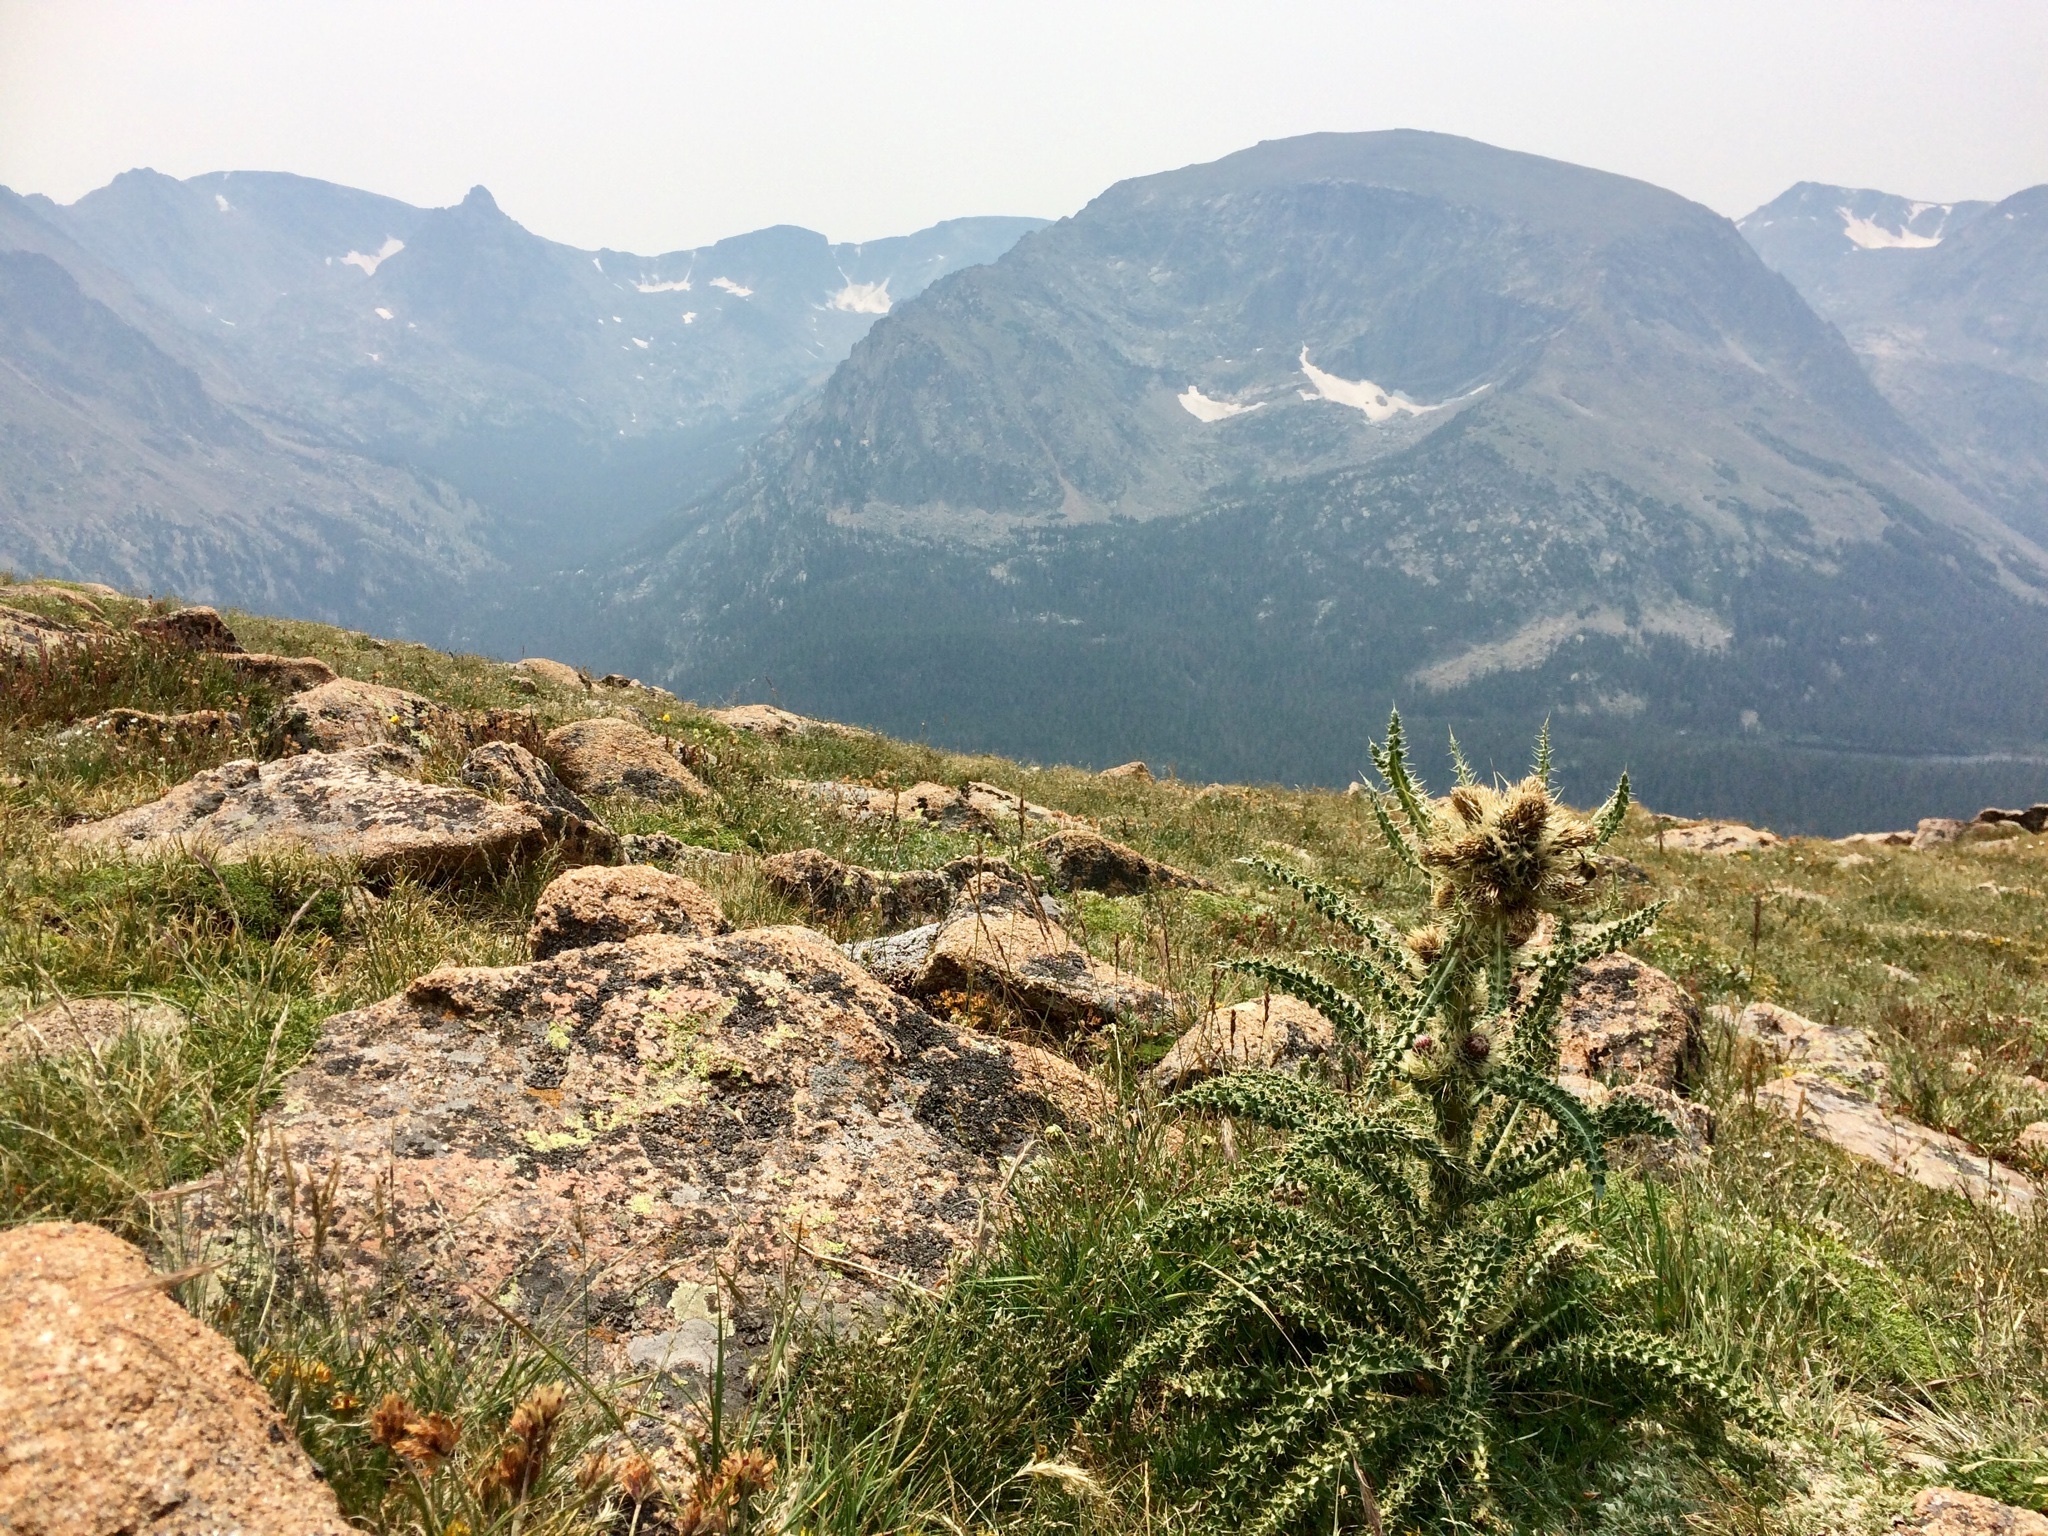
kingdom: Plantae
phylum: Tracheophyta
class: Magnoliopsida
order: Asterales
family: Asteraceae
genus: Cirsium
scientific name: Cirsium scopulorum
